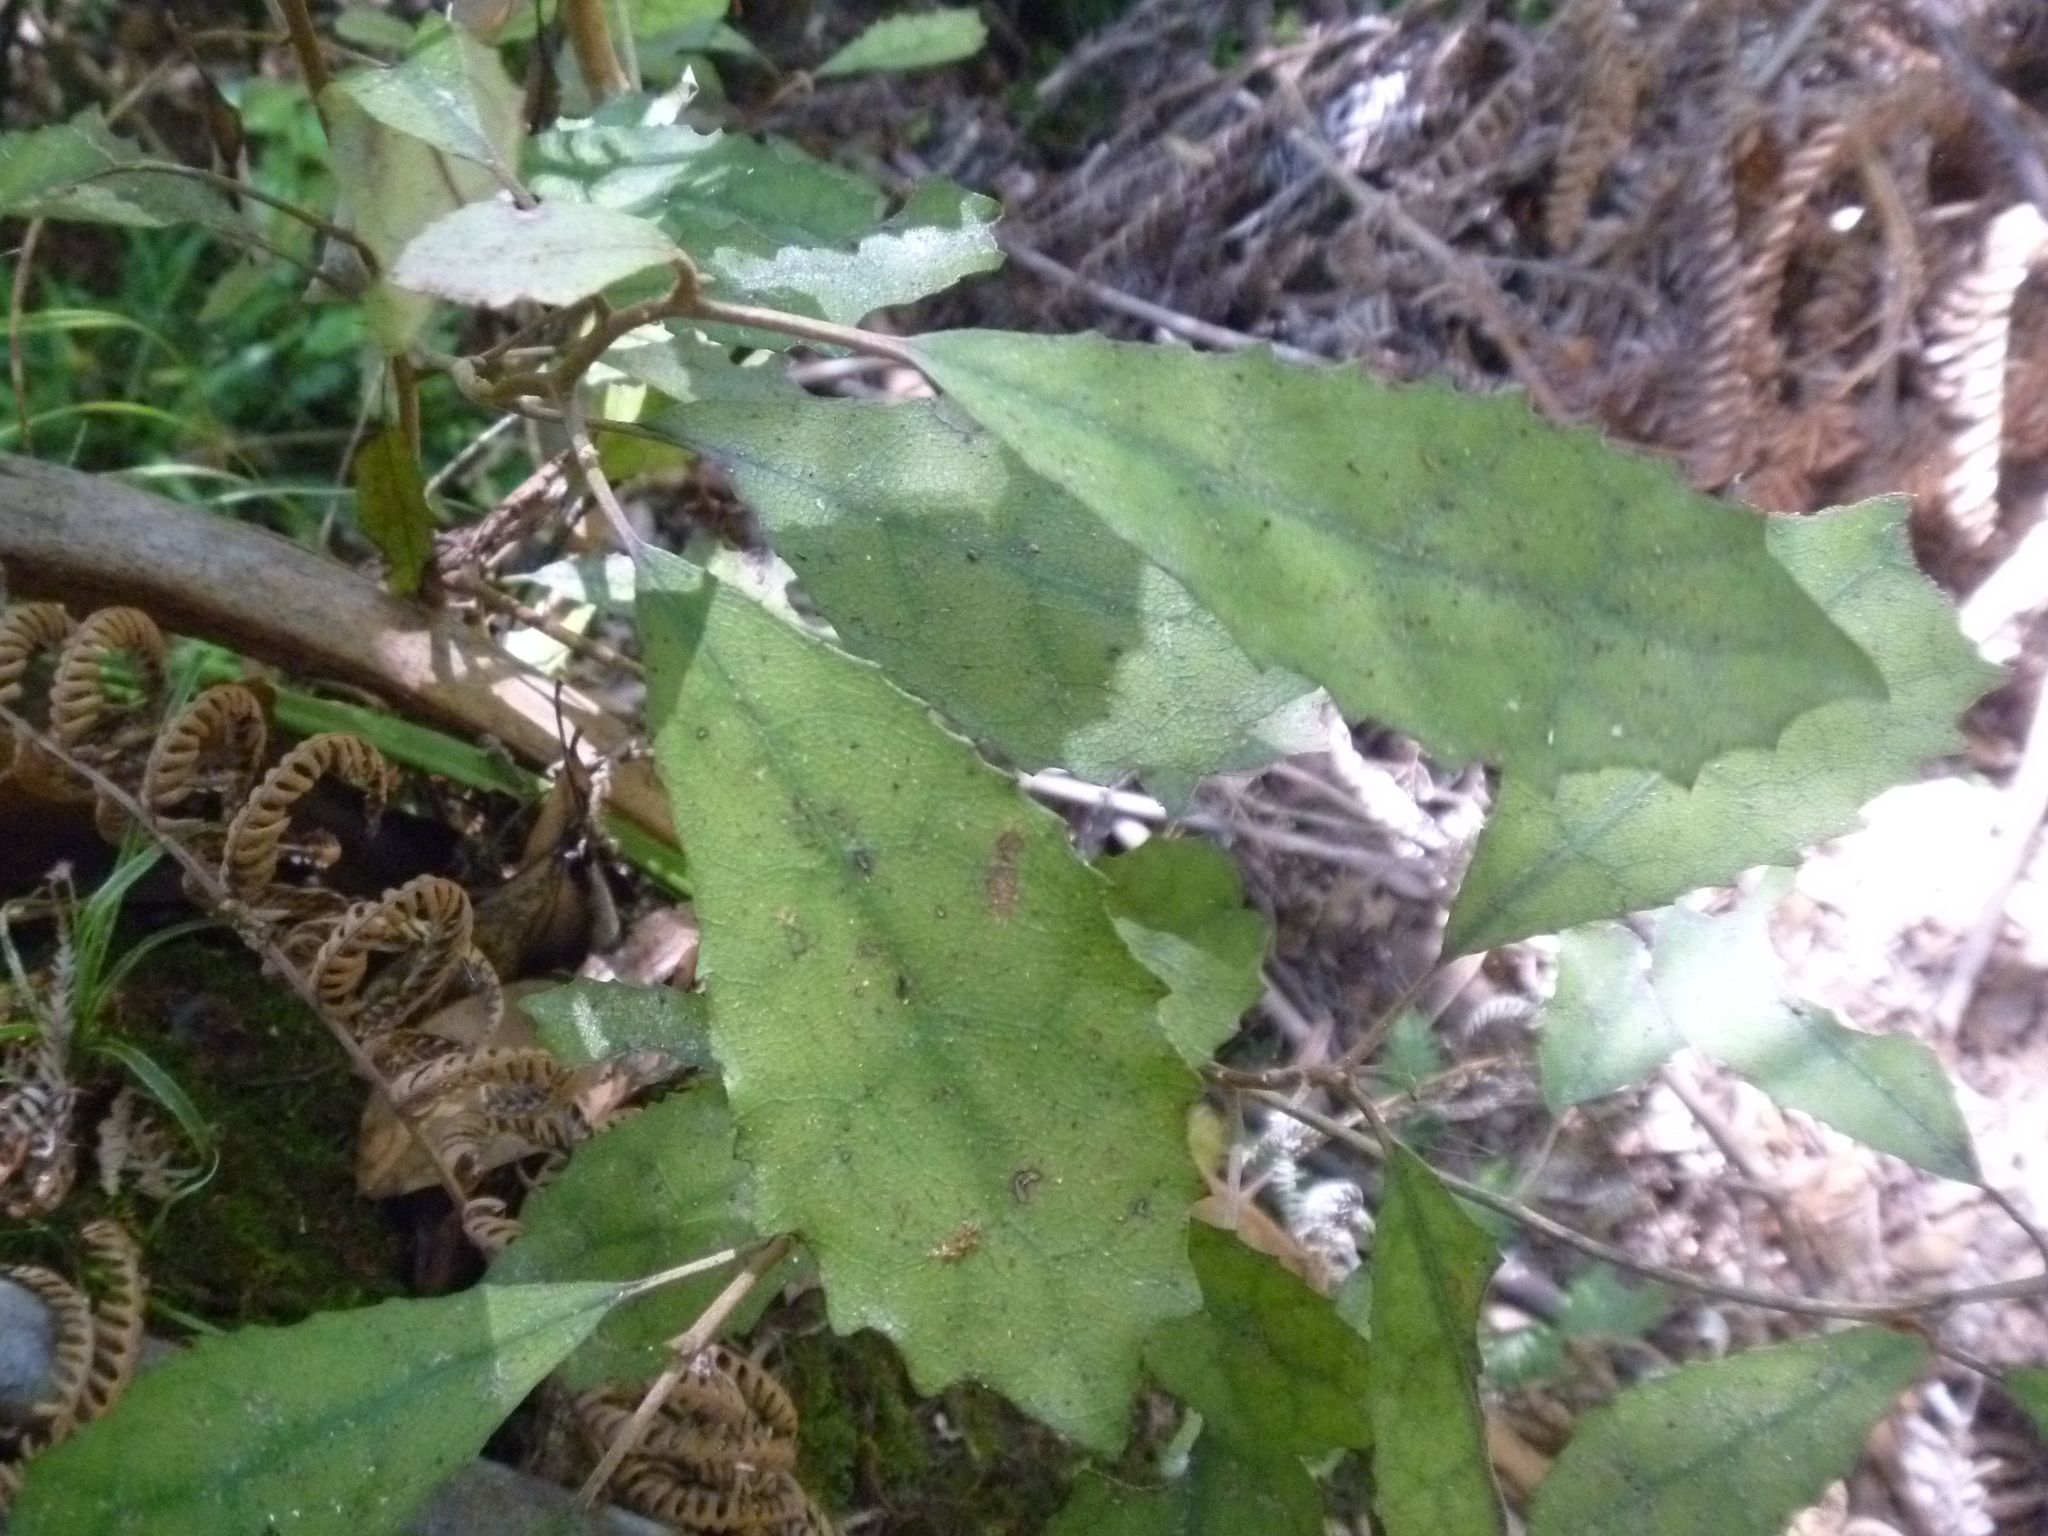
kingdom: Plantae
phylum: Tracheophyta
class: Magnoliopsida
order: Asterales
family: Asteraceae
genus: Olearia
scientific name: Olearia rani
